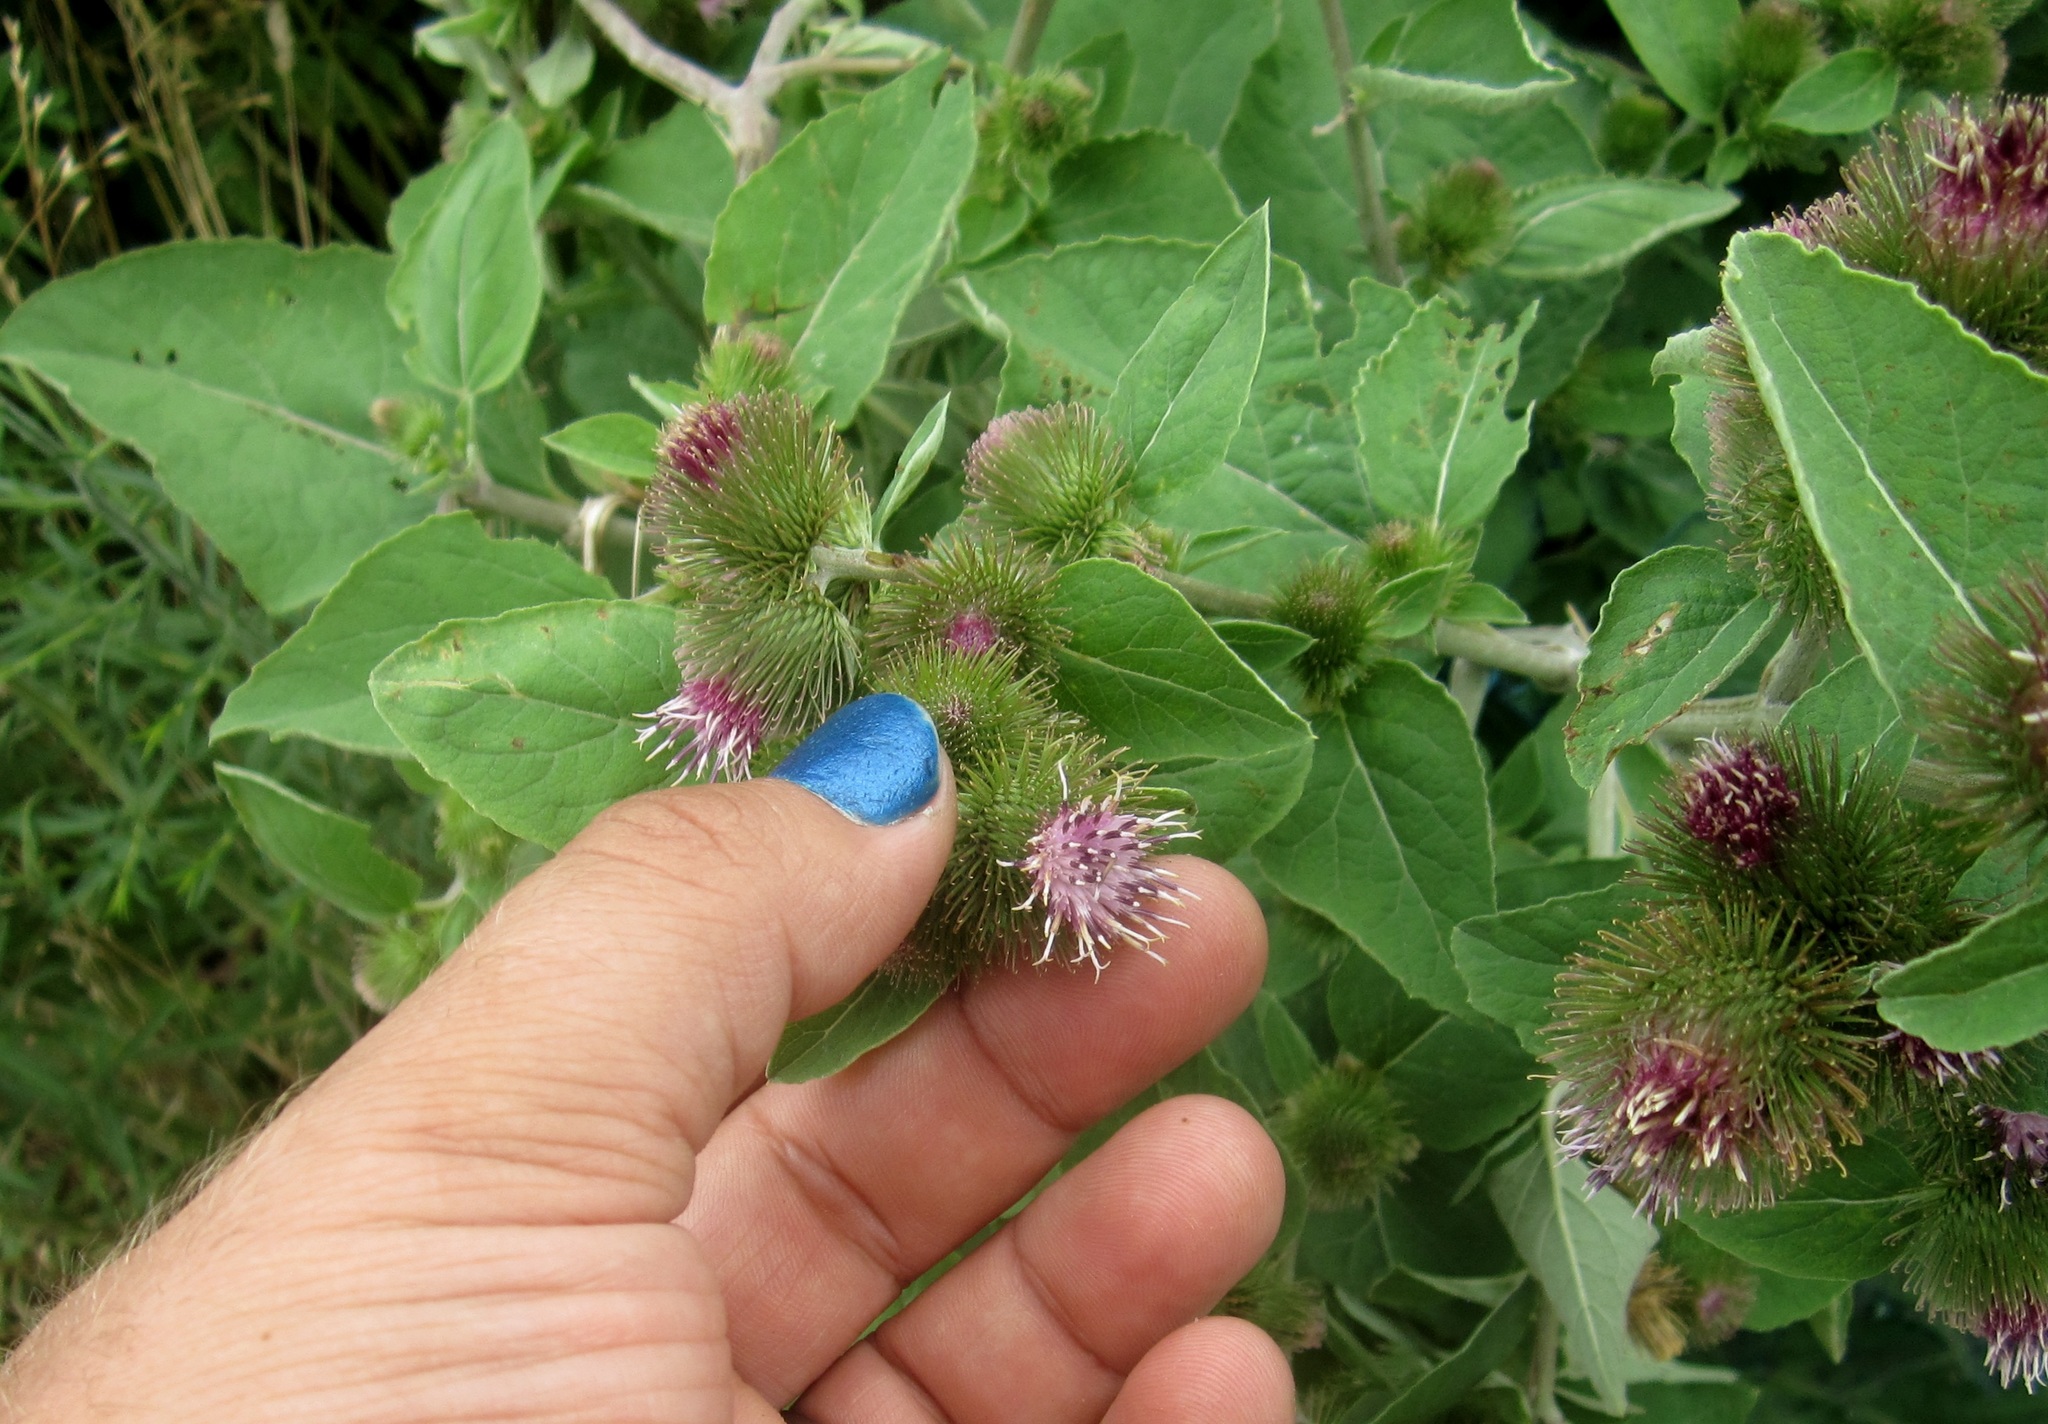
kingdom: Plantae
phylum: Tracheophyta
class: Magnoliopsida
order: Asterales
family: Asteraceae
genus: Arctium
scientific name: Arctium minus
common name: Lesser burdock
